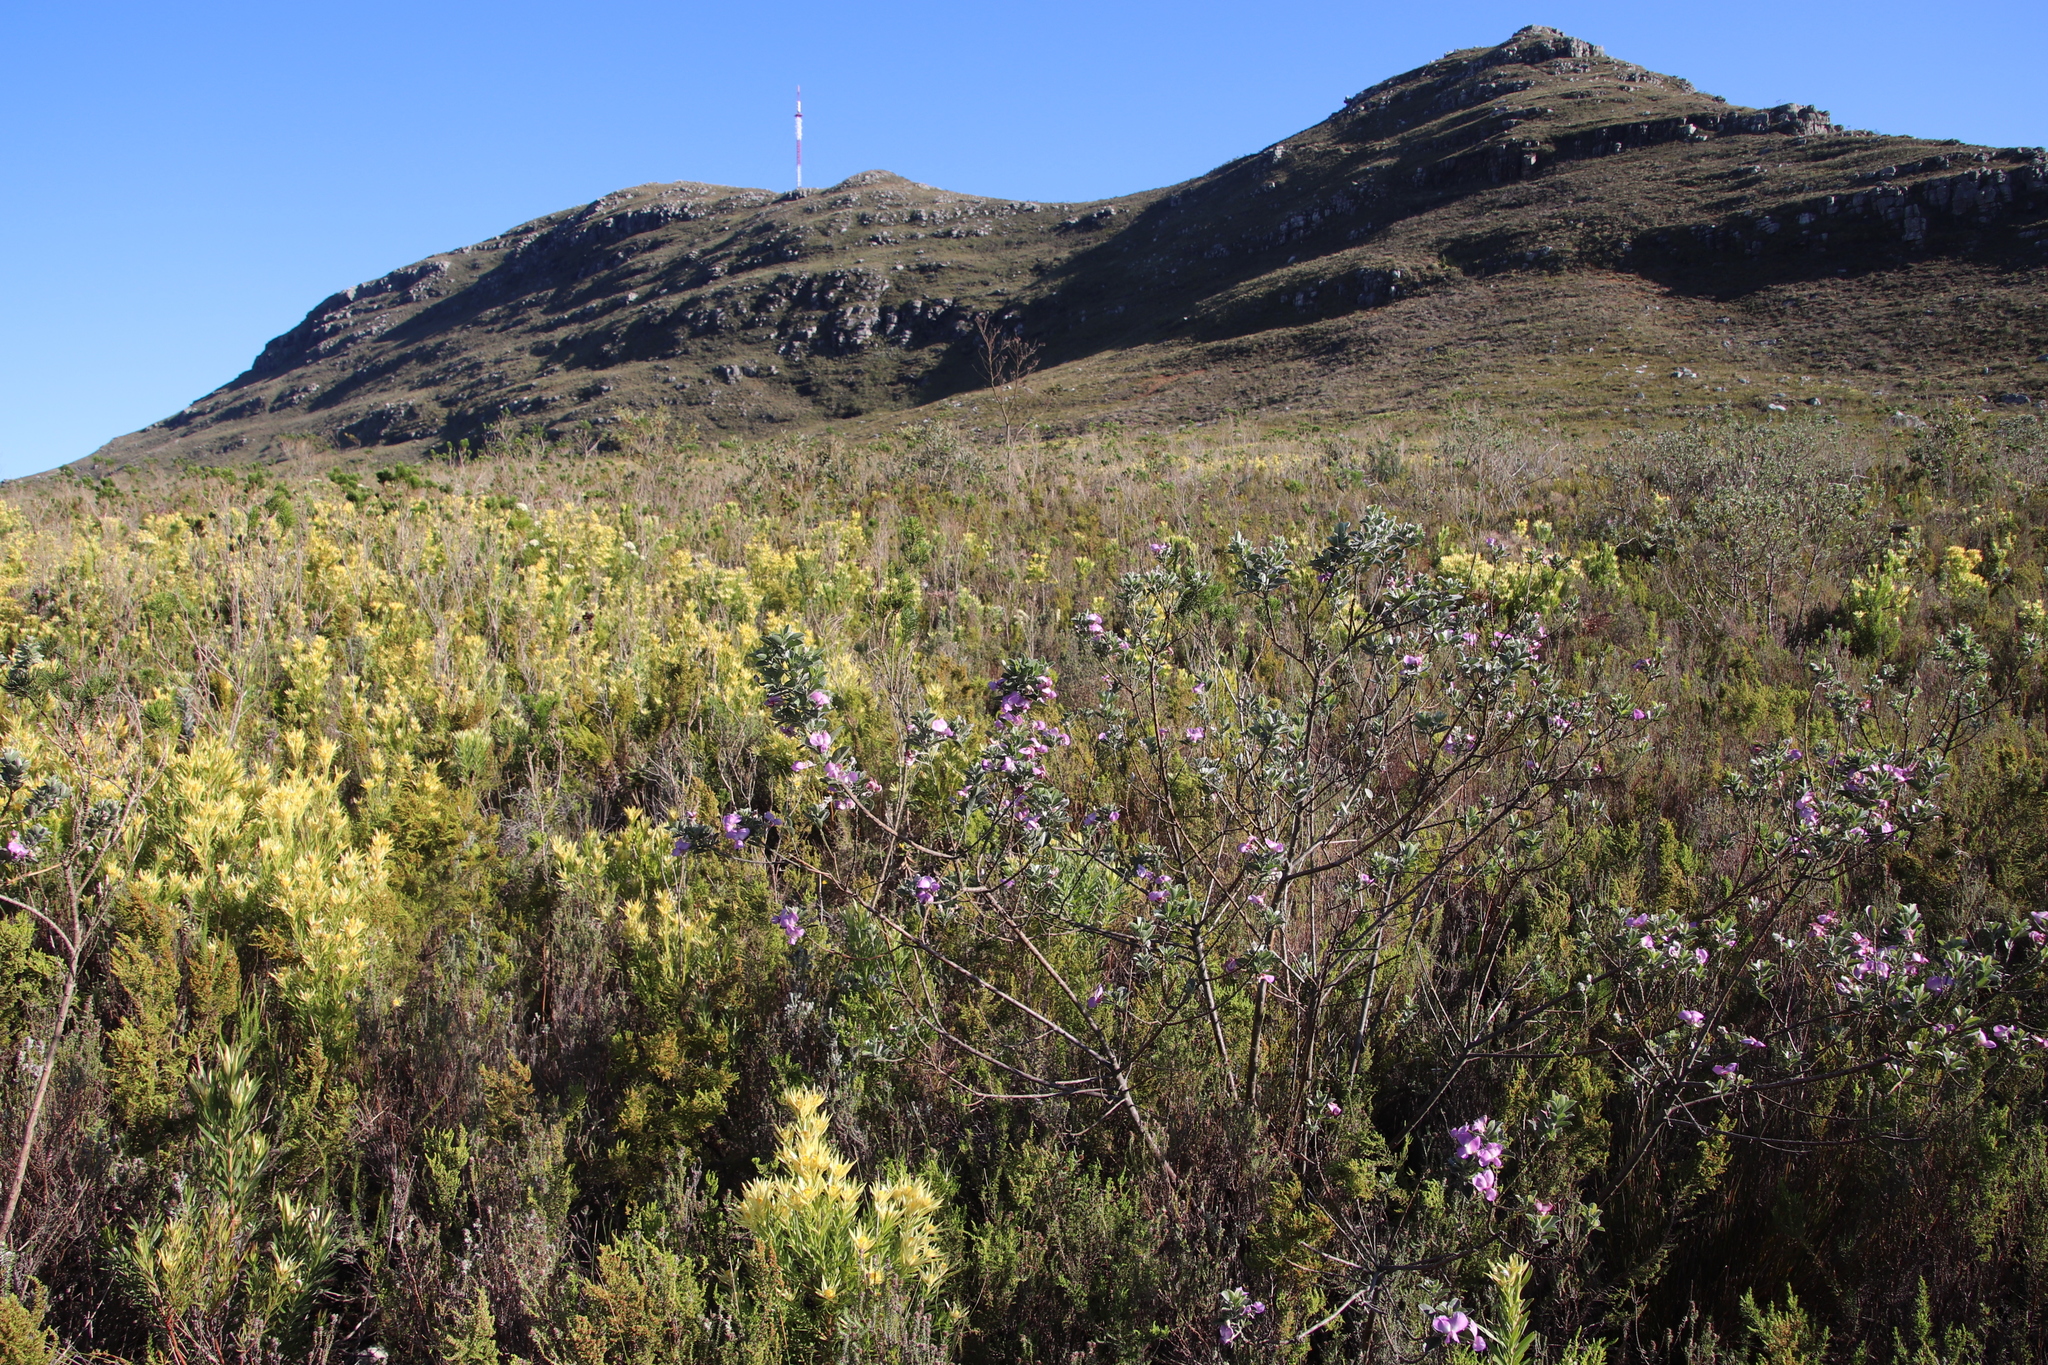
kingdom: Plantae
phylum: Tracheophyta
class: Magnoliopsida
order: Fabales
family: Fabaceae
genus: Podalyria
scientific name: Podalyria calyptrata
